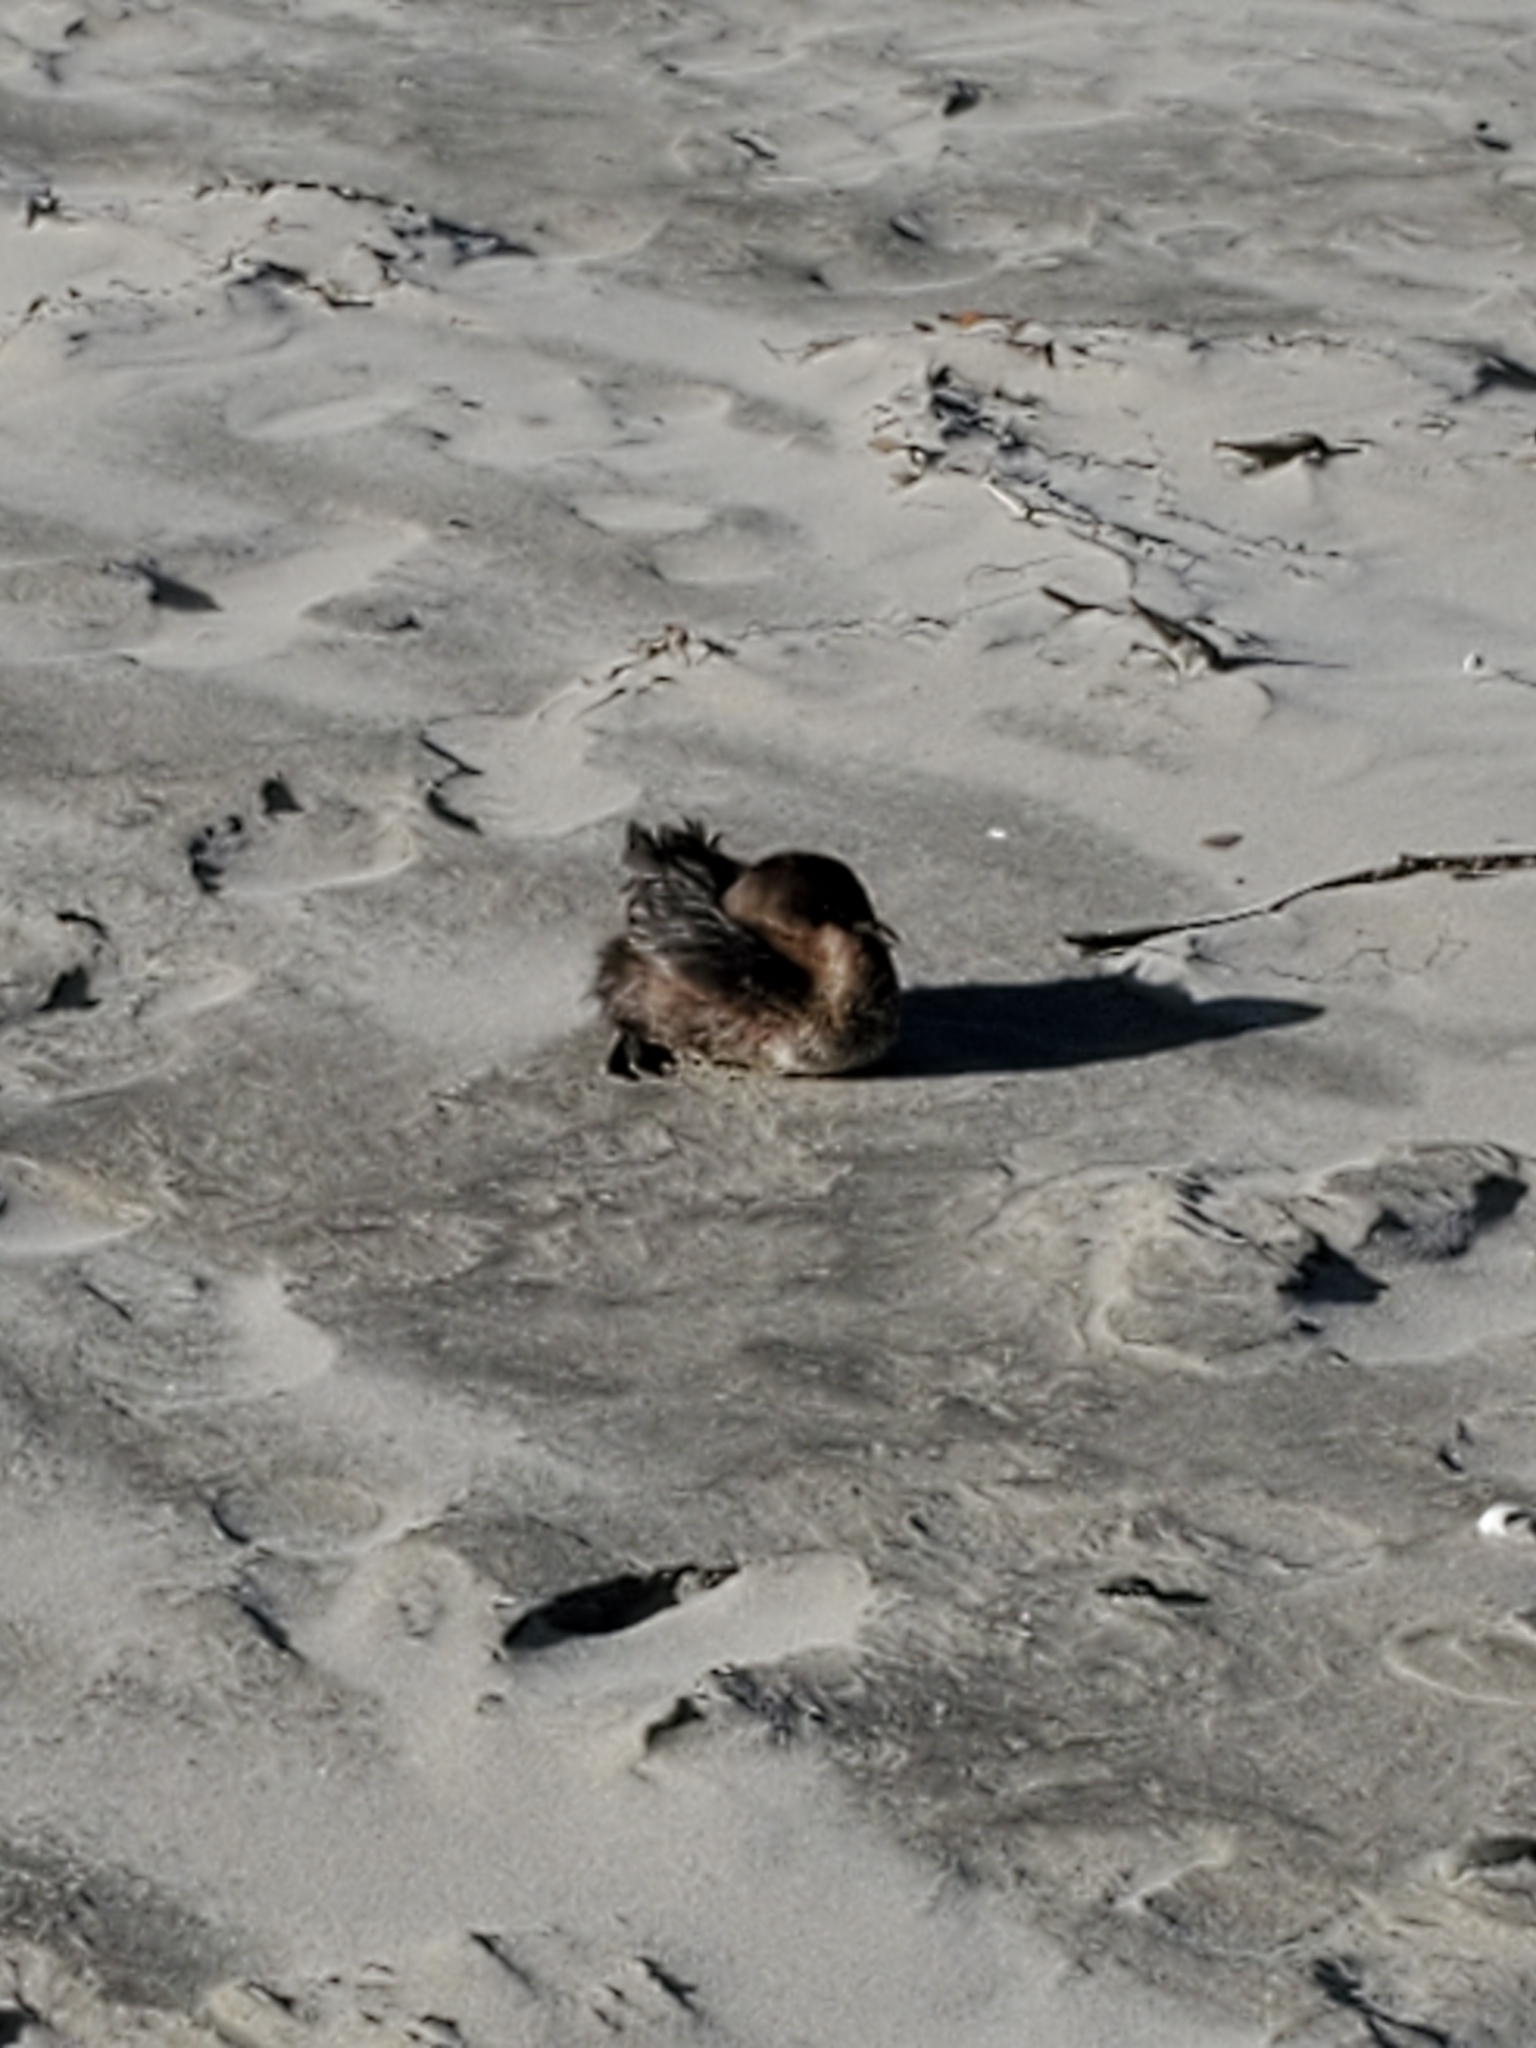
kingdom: Animalia
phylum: Chordata
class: Aves
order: Podicipediformes
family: Podicipedidae
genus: Podilymbus
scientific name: Podilymbus podiceps
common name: Pied-billed grebe
